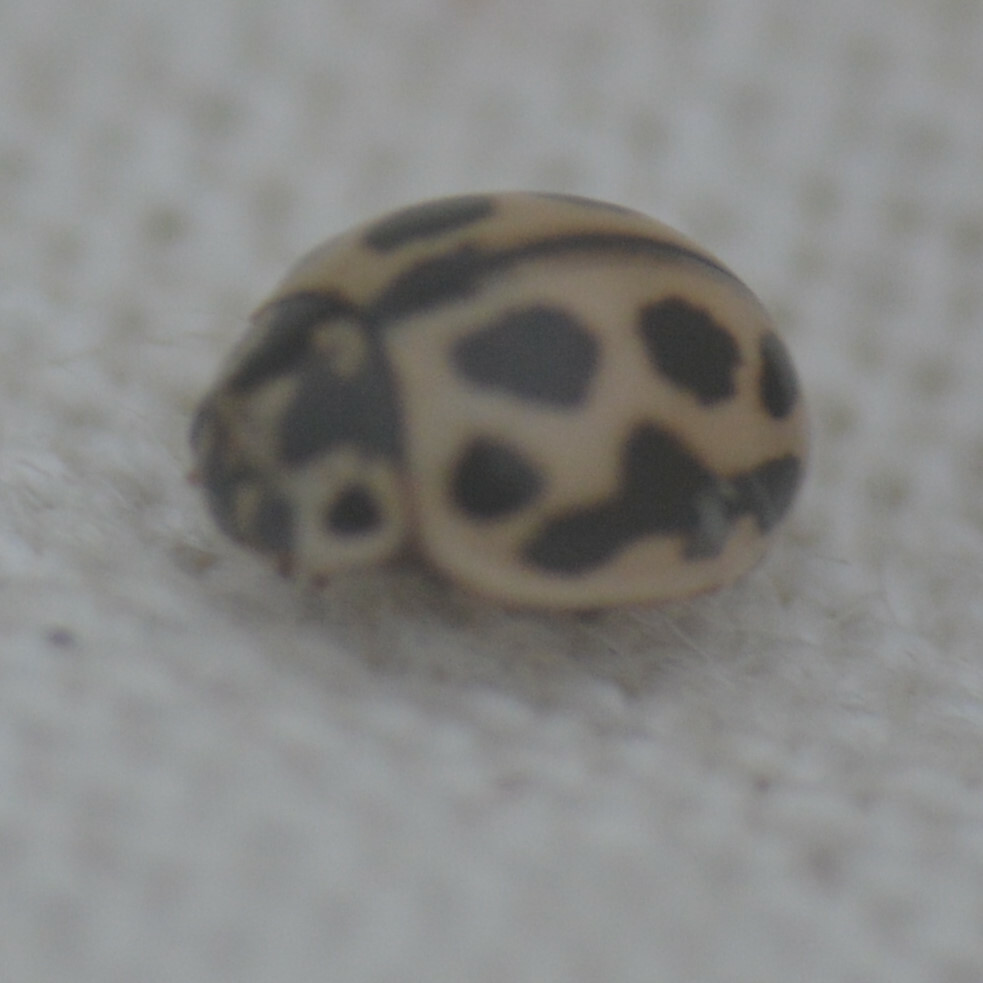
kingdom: Animalia
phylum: Arthropoda
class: Insecta
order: Coleoptera
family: Coccinellidae
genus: Tytthaspis
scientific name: Tytthaspis sedecimpunctata
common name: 16-spot ladybird
